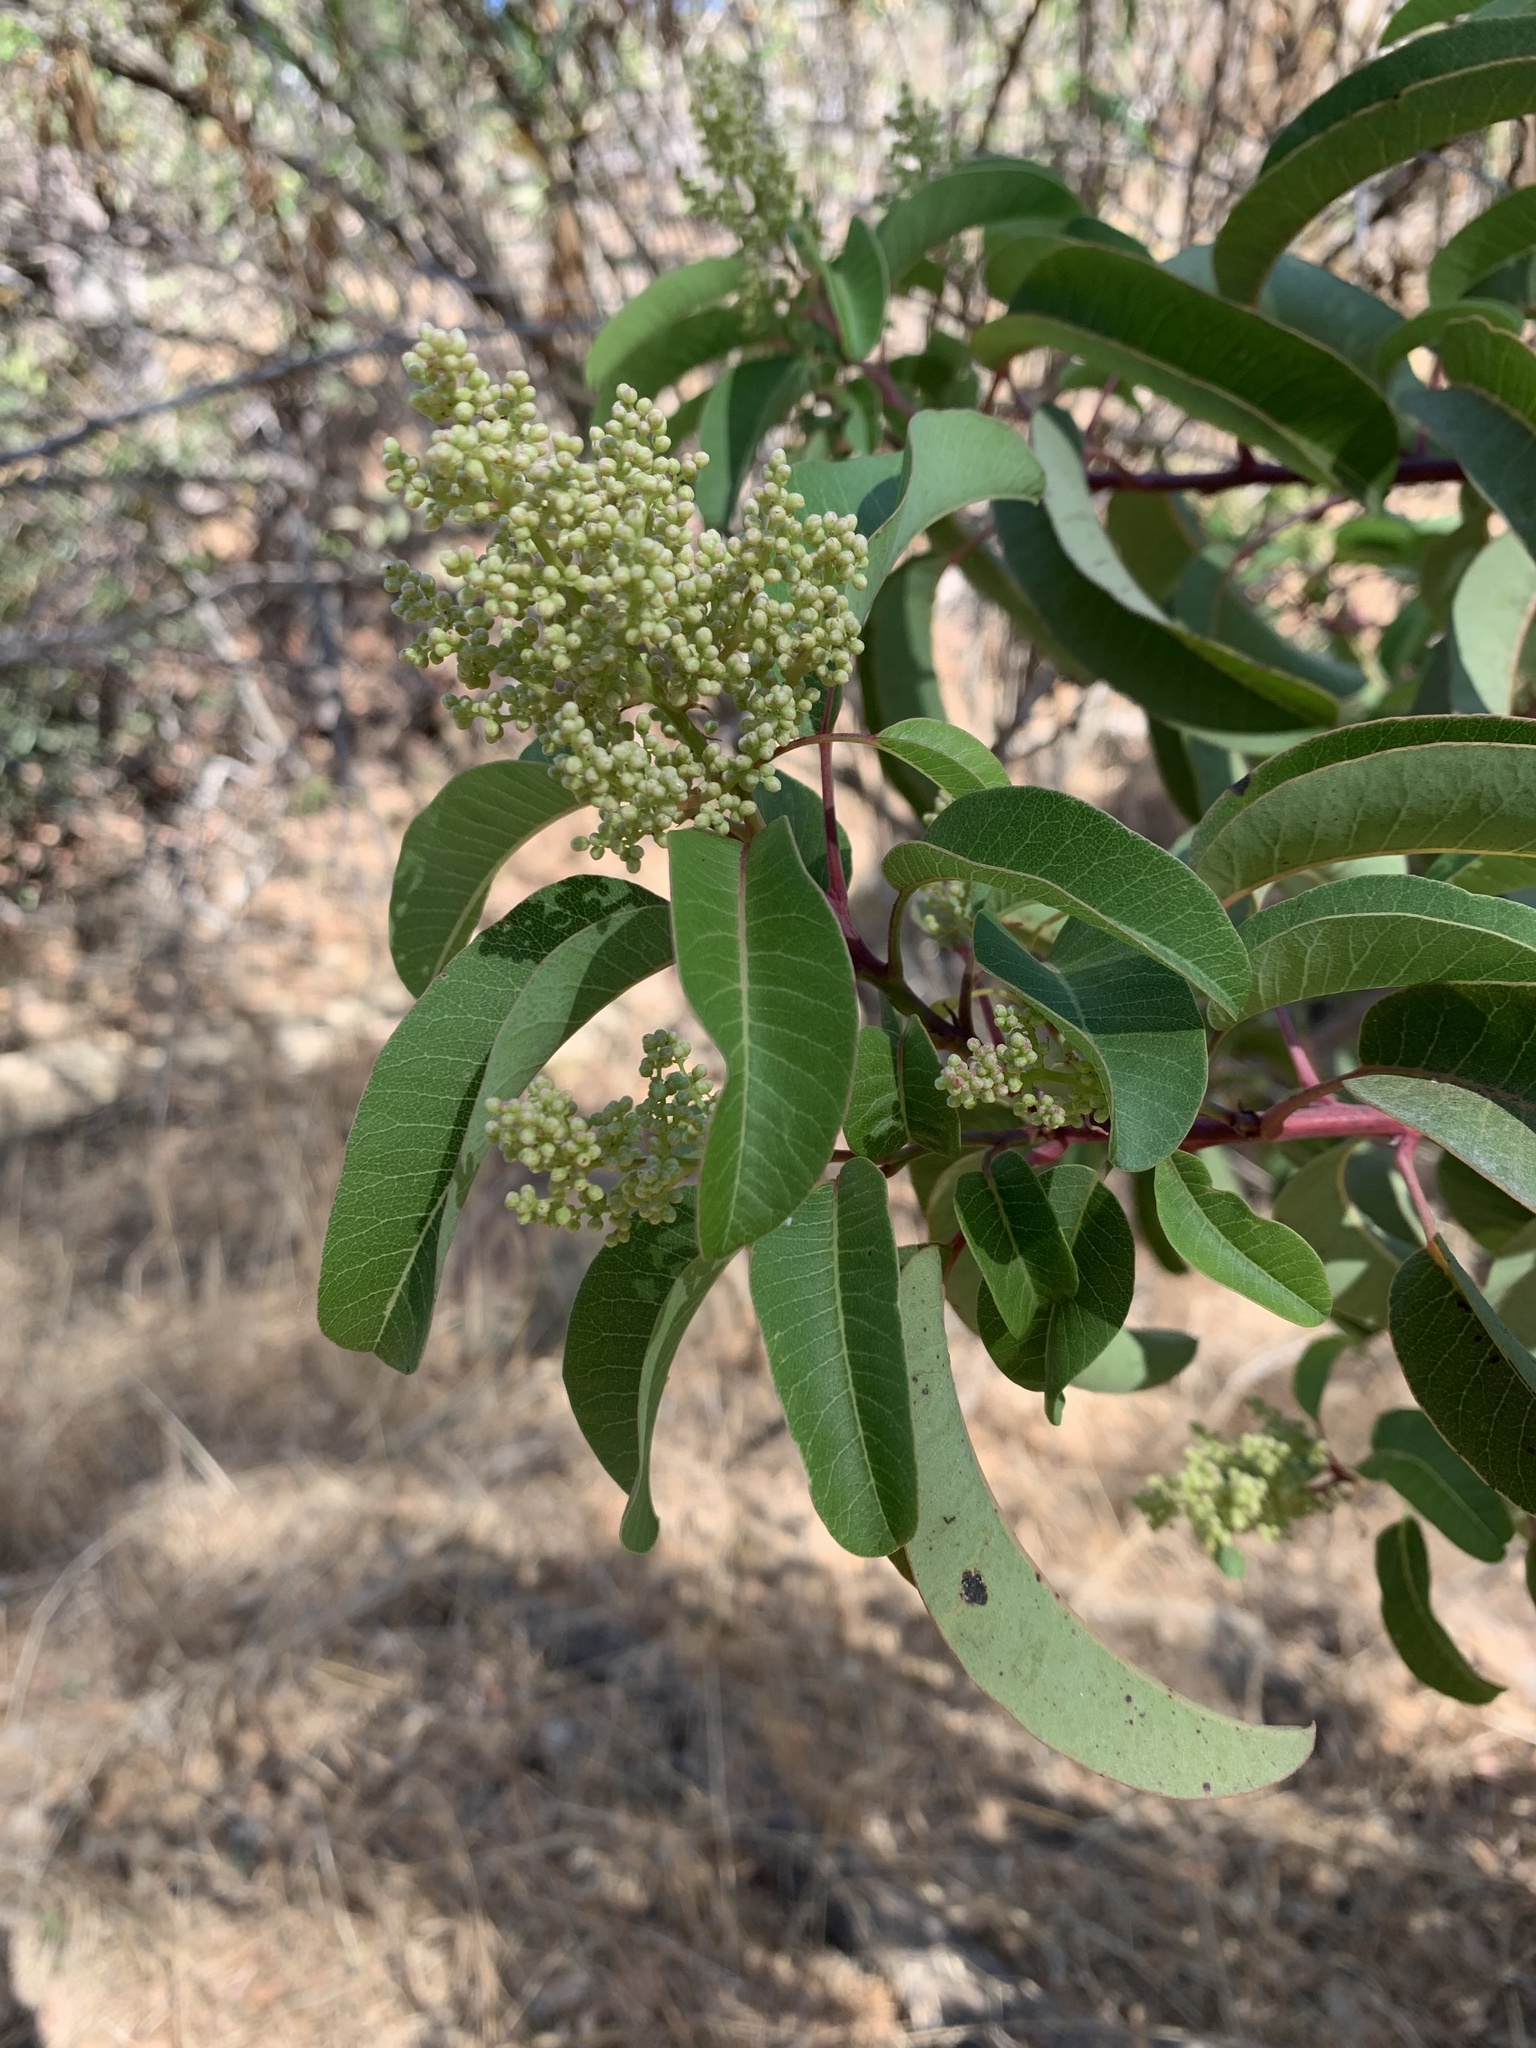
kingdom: Plantae
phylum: Tracheophyta
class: Magnoliopsida
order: Sapindales
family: Anacardiaceae
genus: Malosma
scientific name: Malosma laurina
